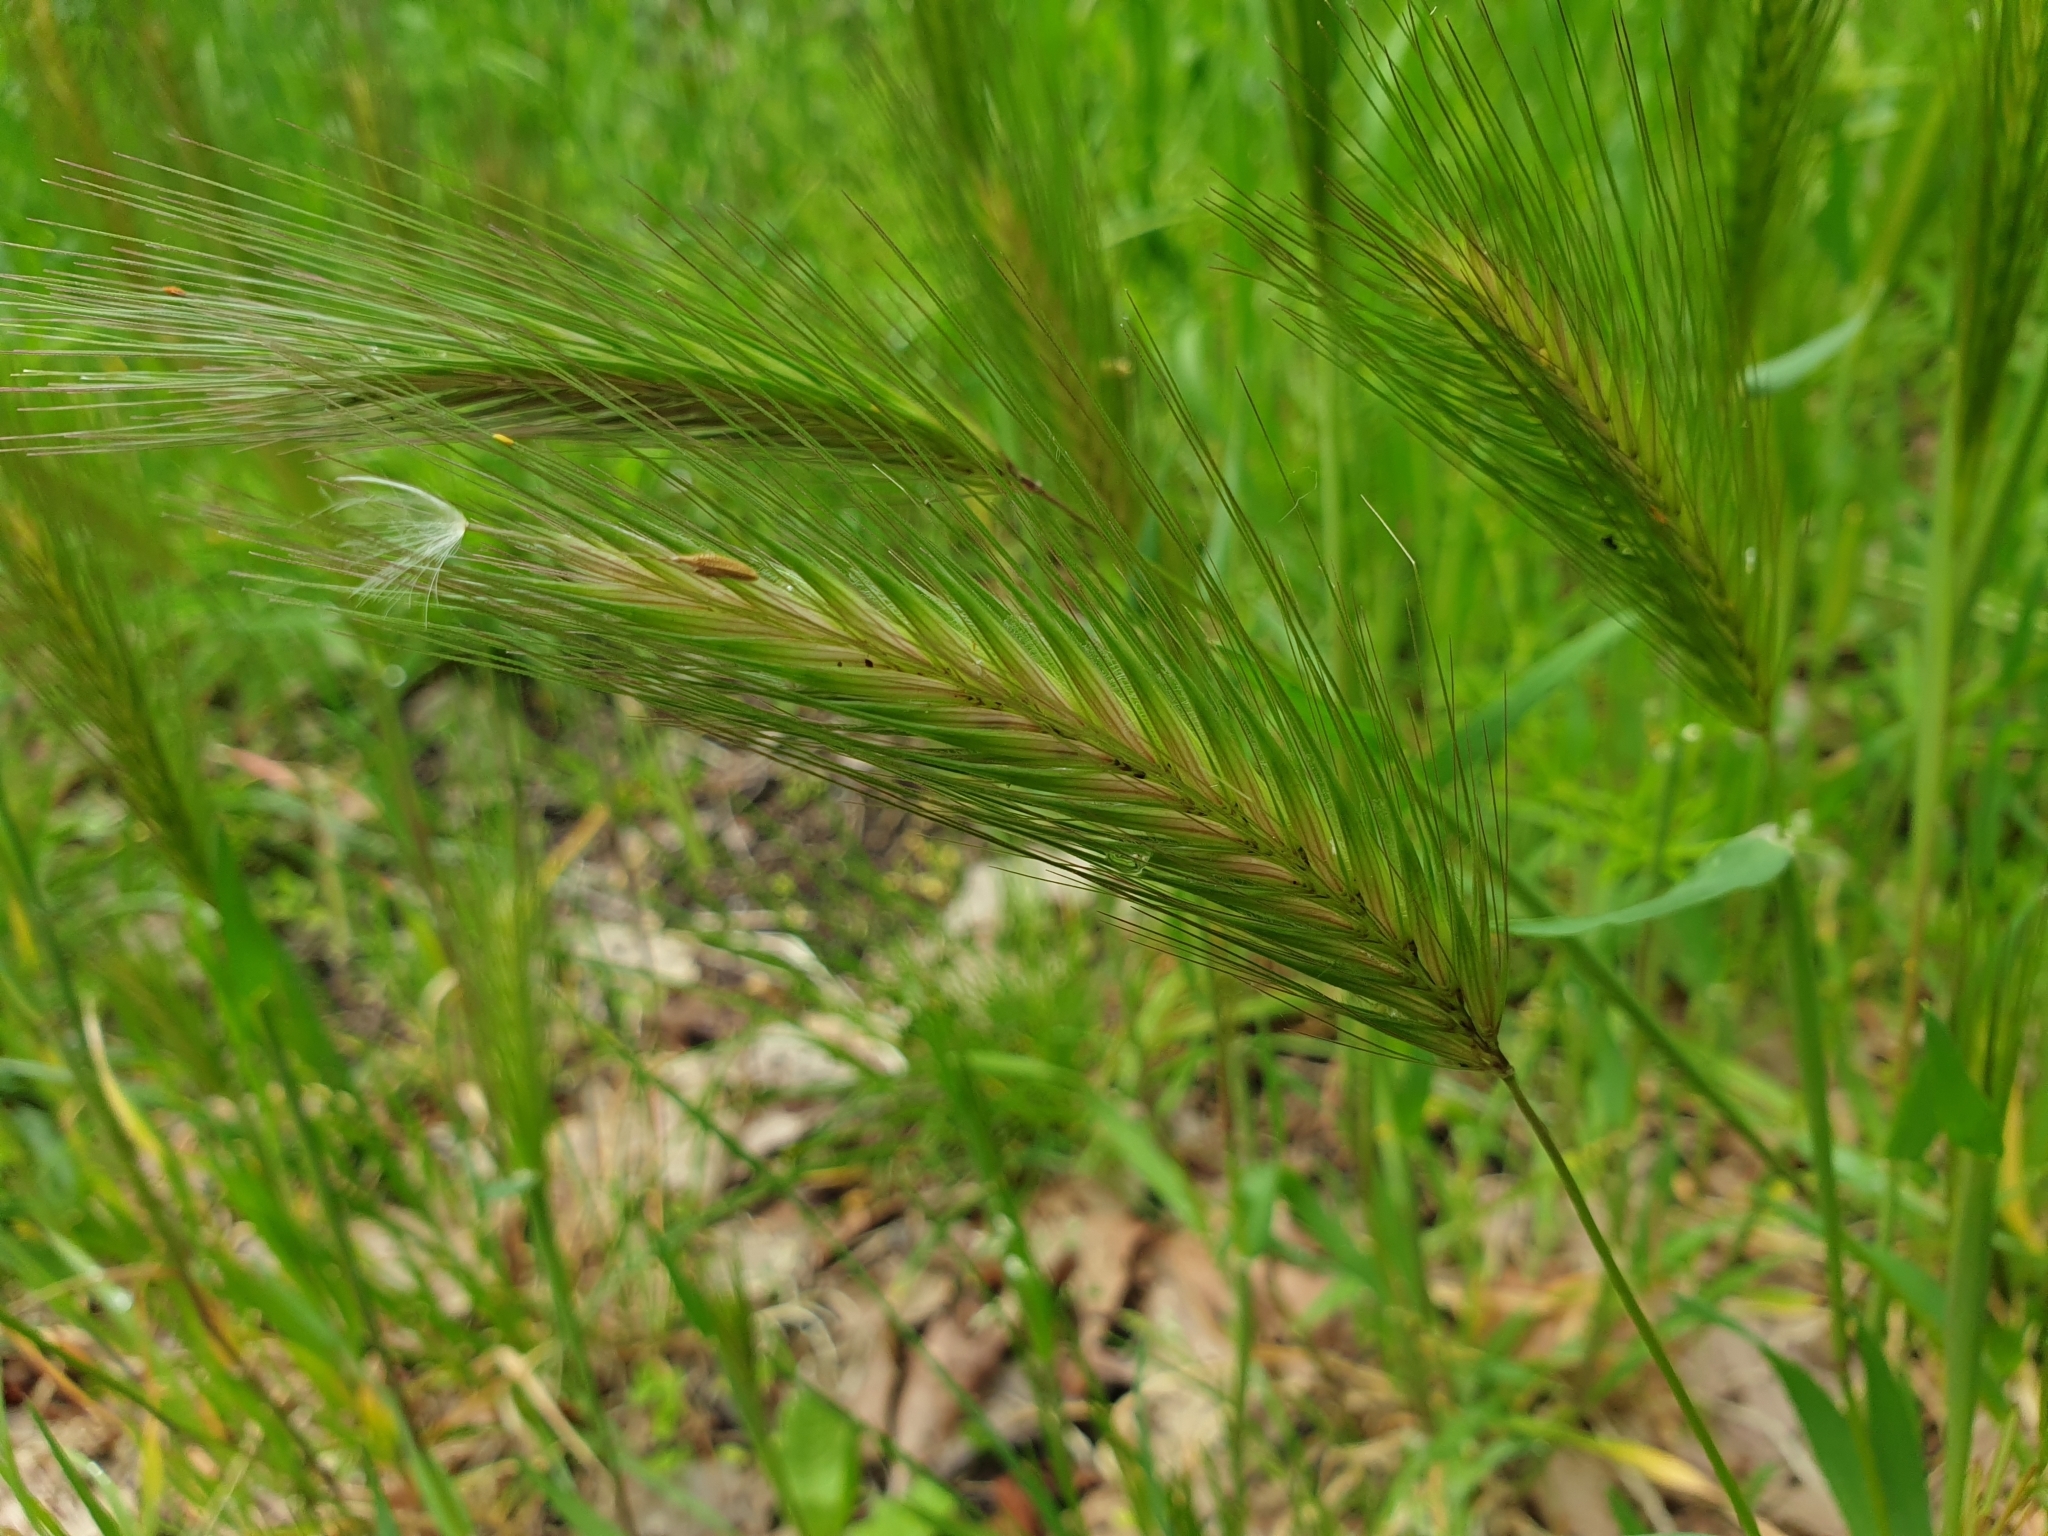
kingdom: Plantae
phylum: Tracheophyta
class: Liliopsida
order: Poales
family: Poaceae
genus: Hordeum
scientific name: Hordeum murinum
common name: Wall barley
